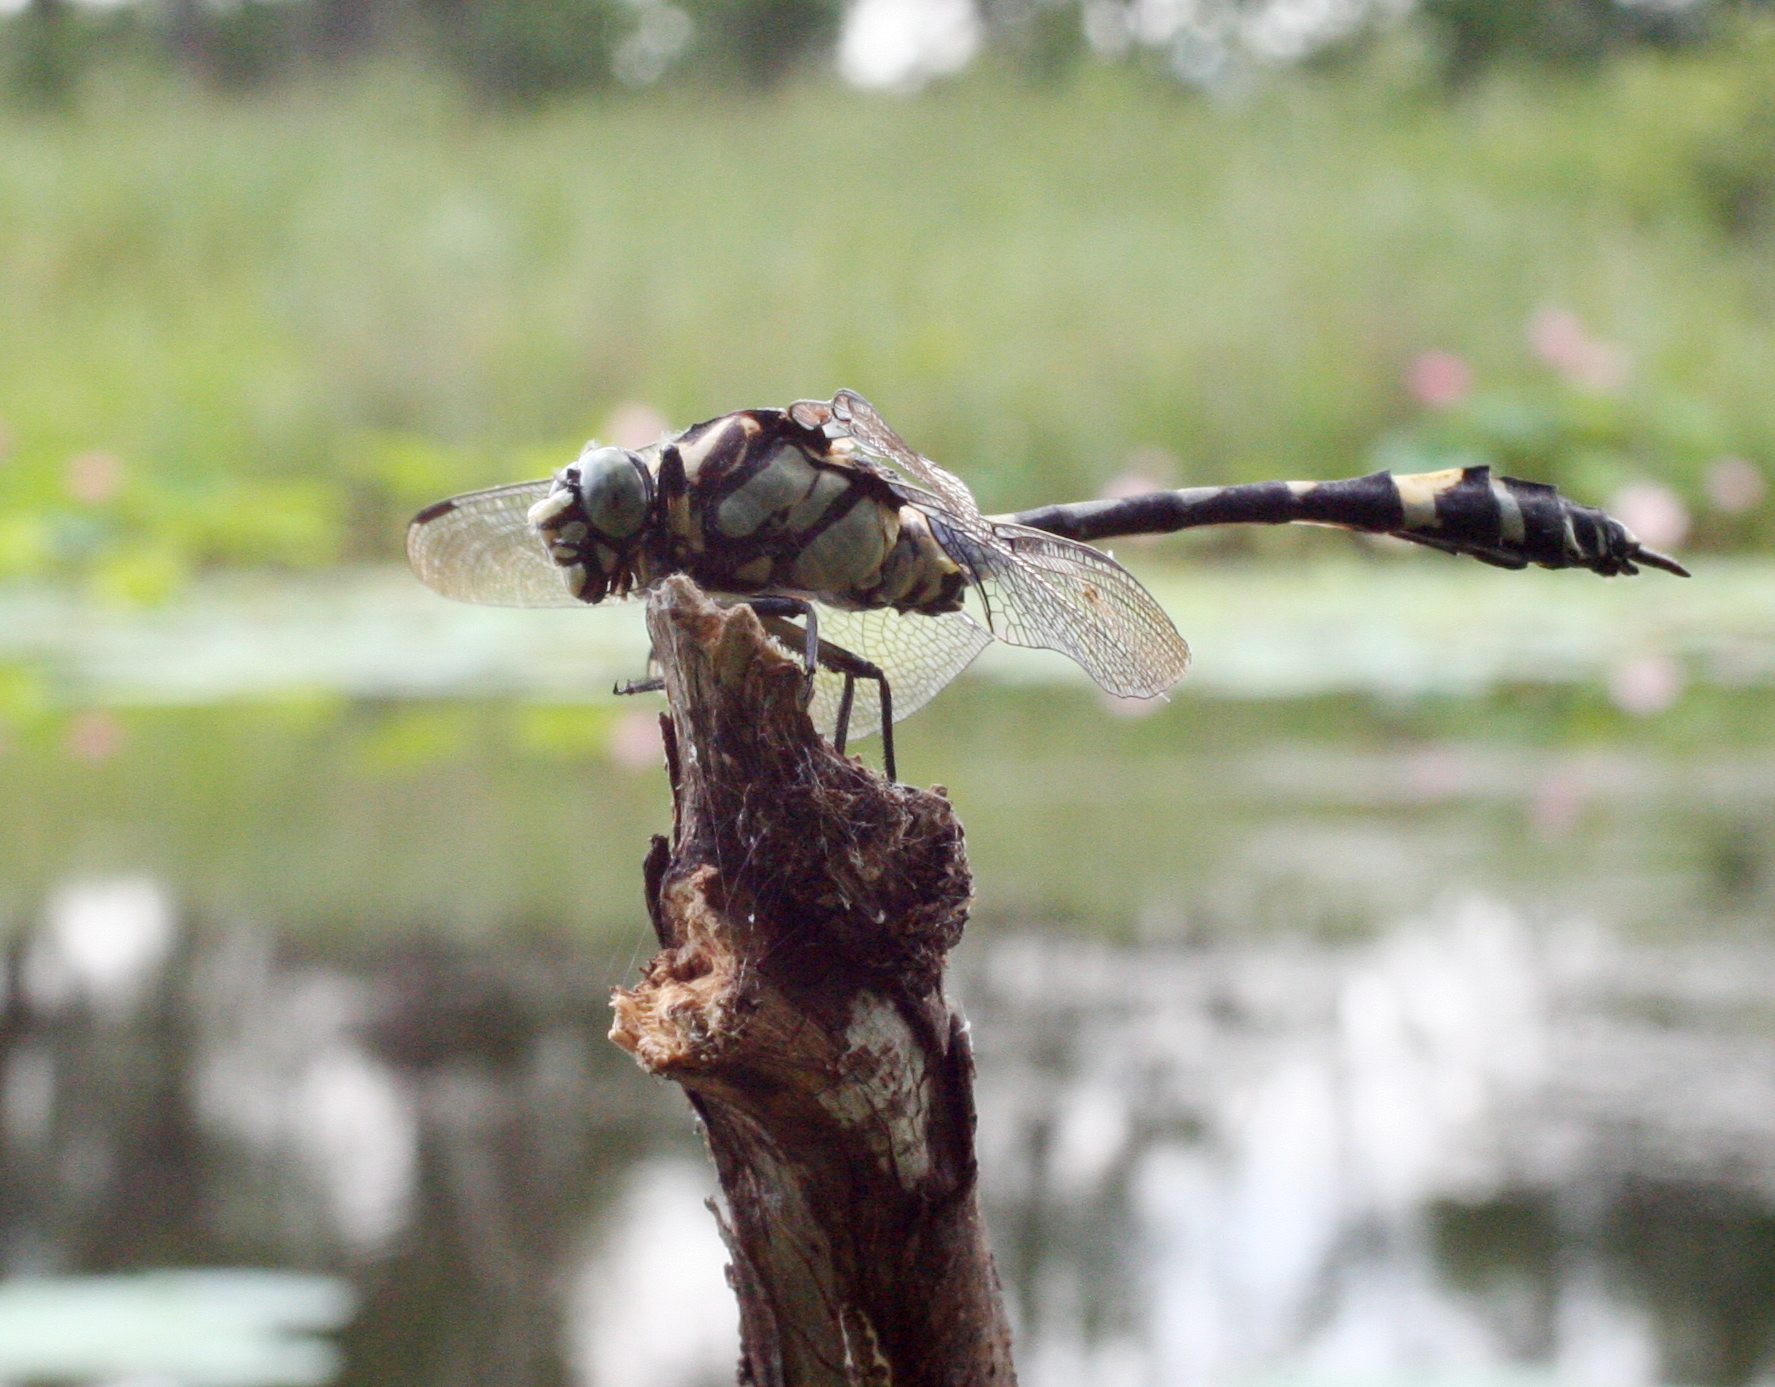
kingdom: Animalia
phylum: Arthropoda
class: Insecta
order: Odonata
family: Gomphidae
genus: Gomphidia
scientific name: Gomphidia confluens
